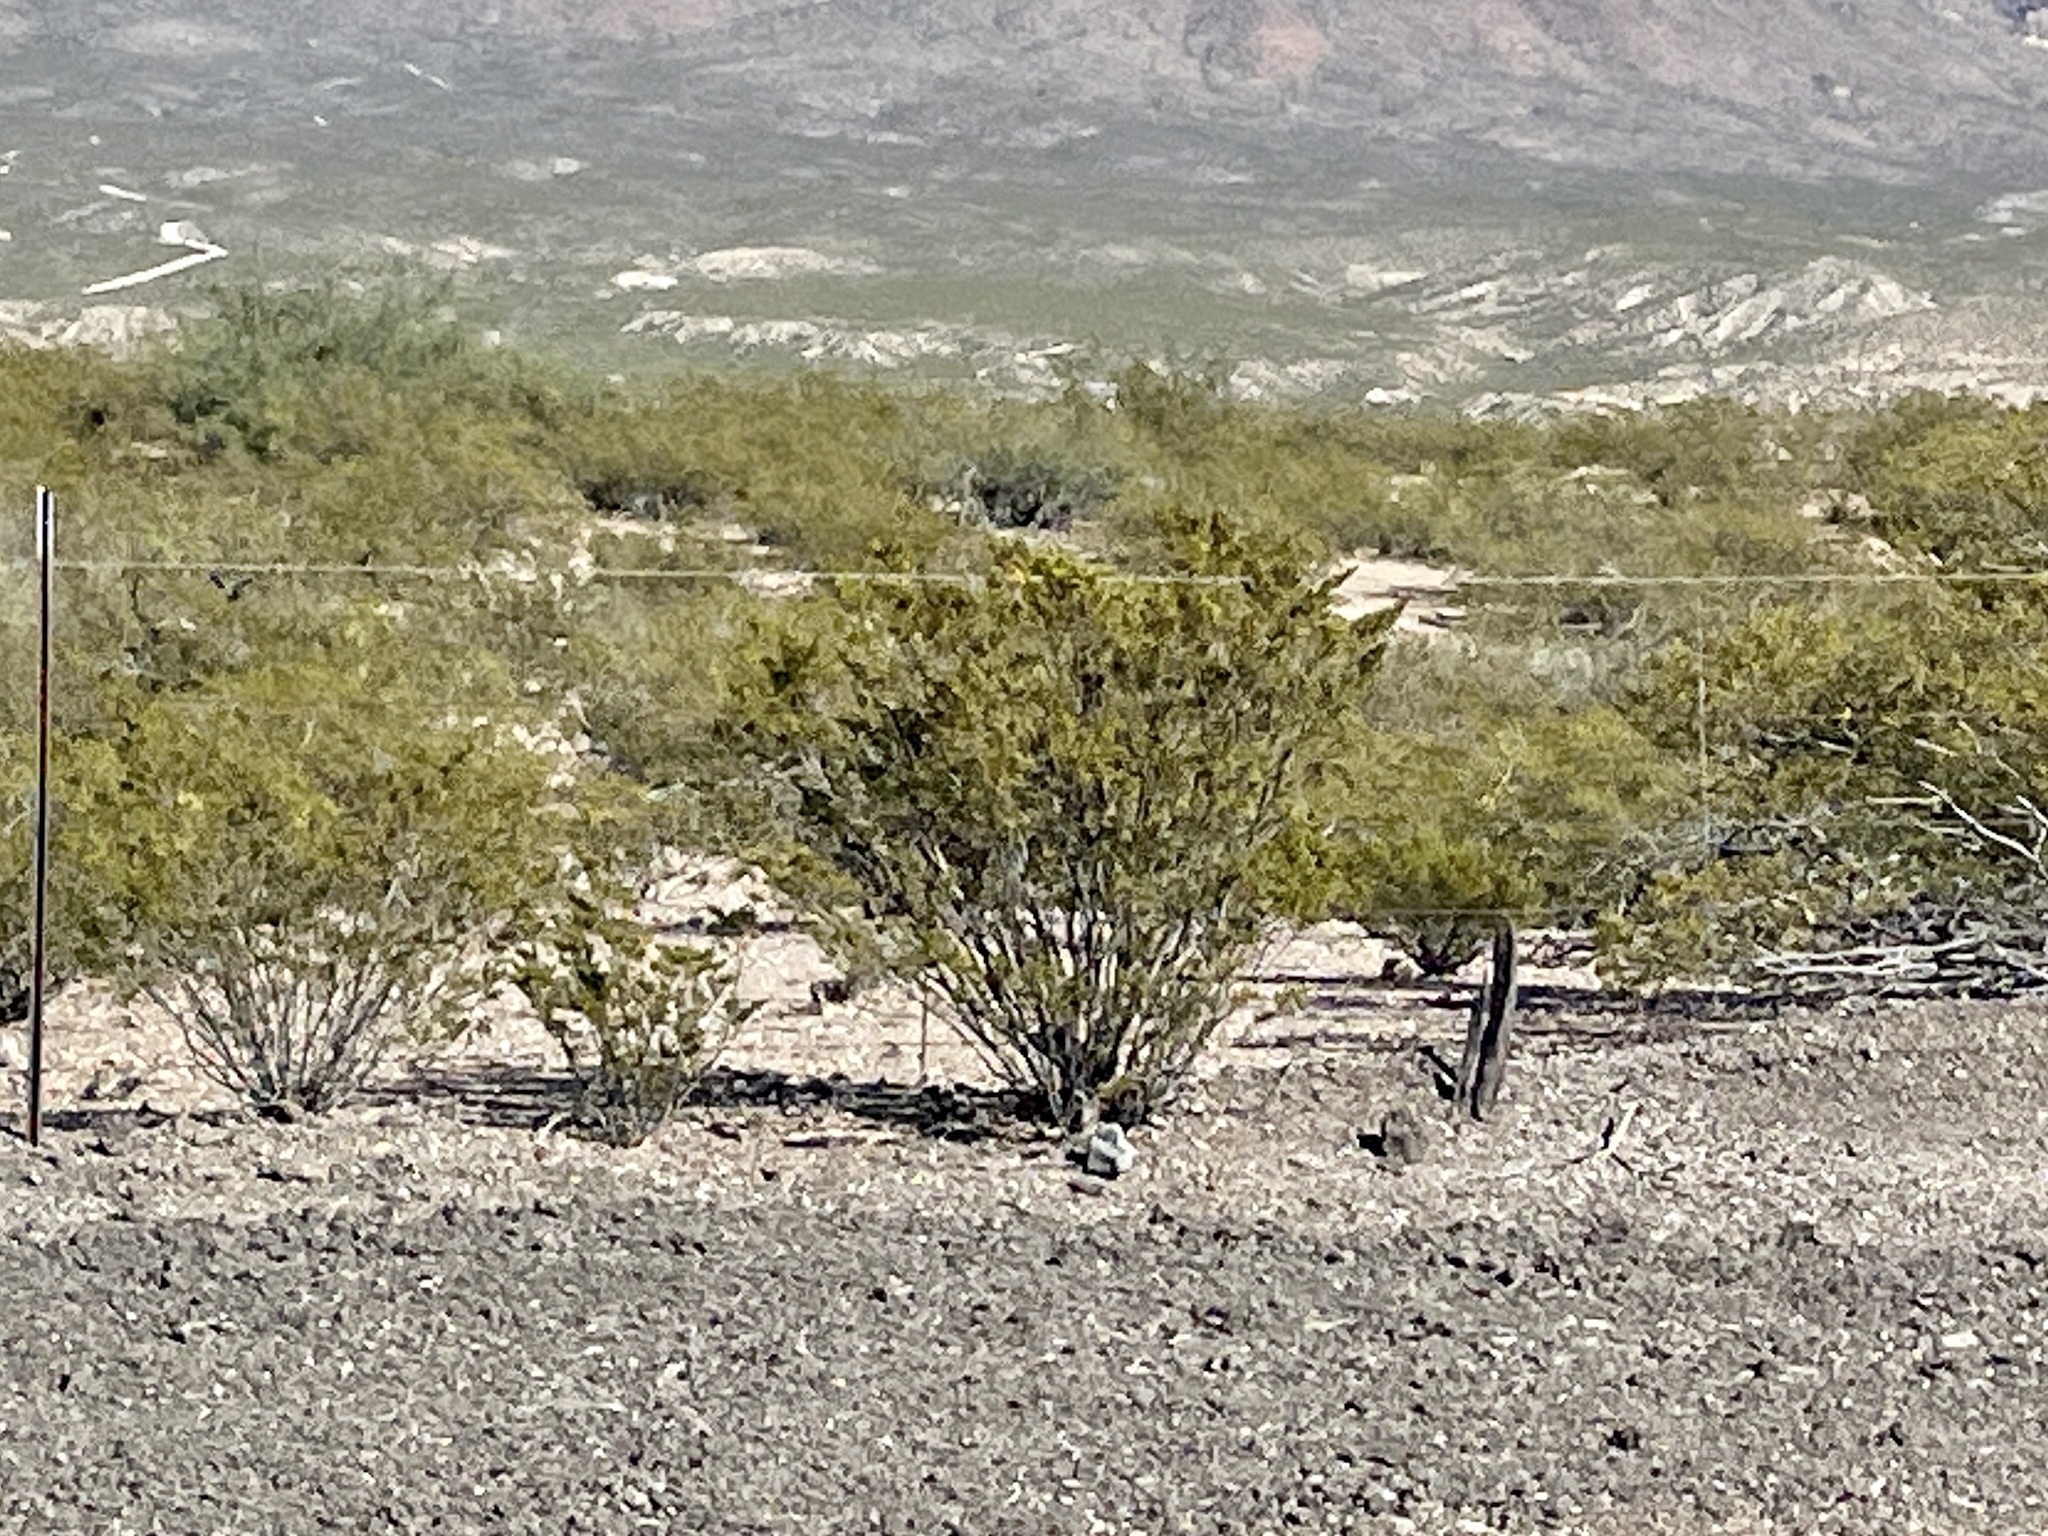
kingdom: Plantae
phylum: Tracheophyta
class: Magnoliopsida
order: Zygophyllales
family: Zygophyllaceae
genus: Larrea
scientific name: Larrea tridentata
